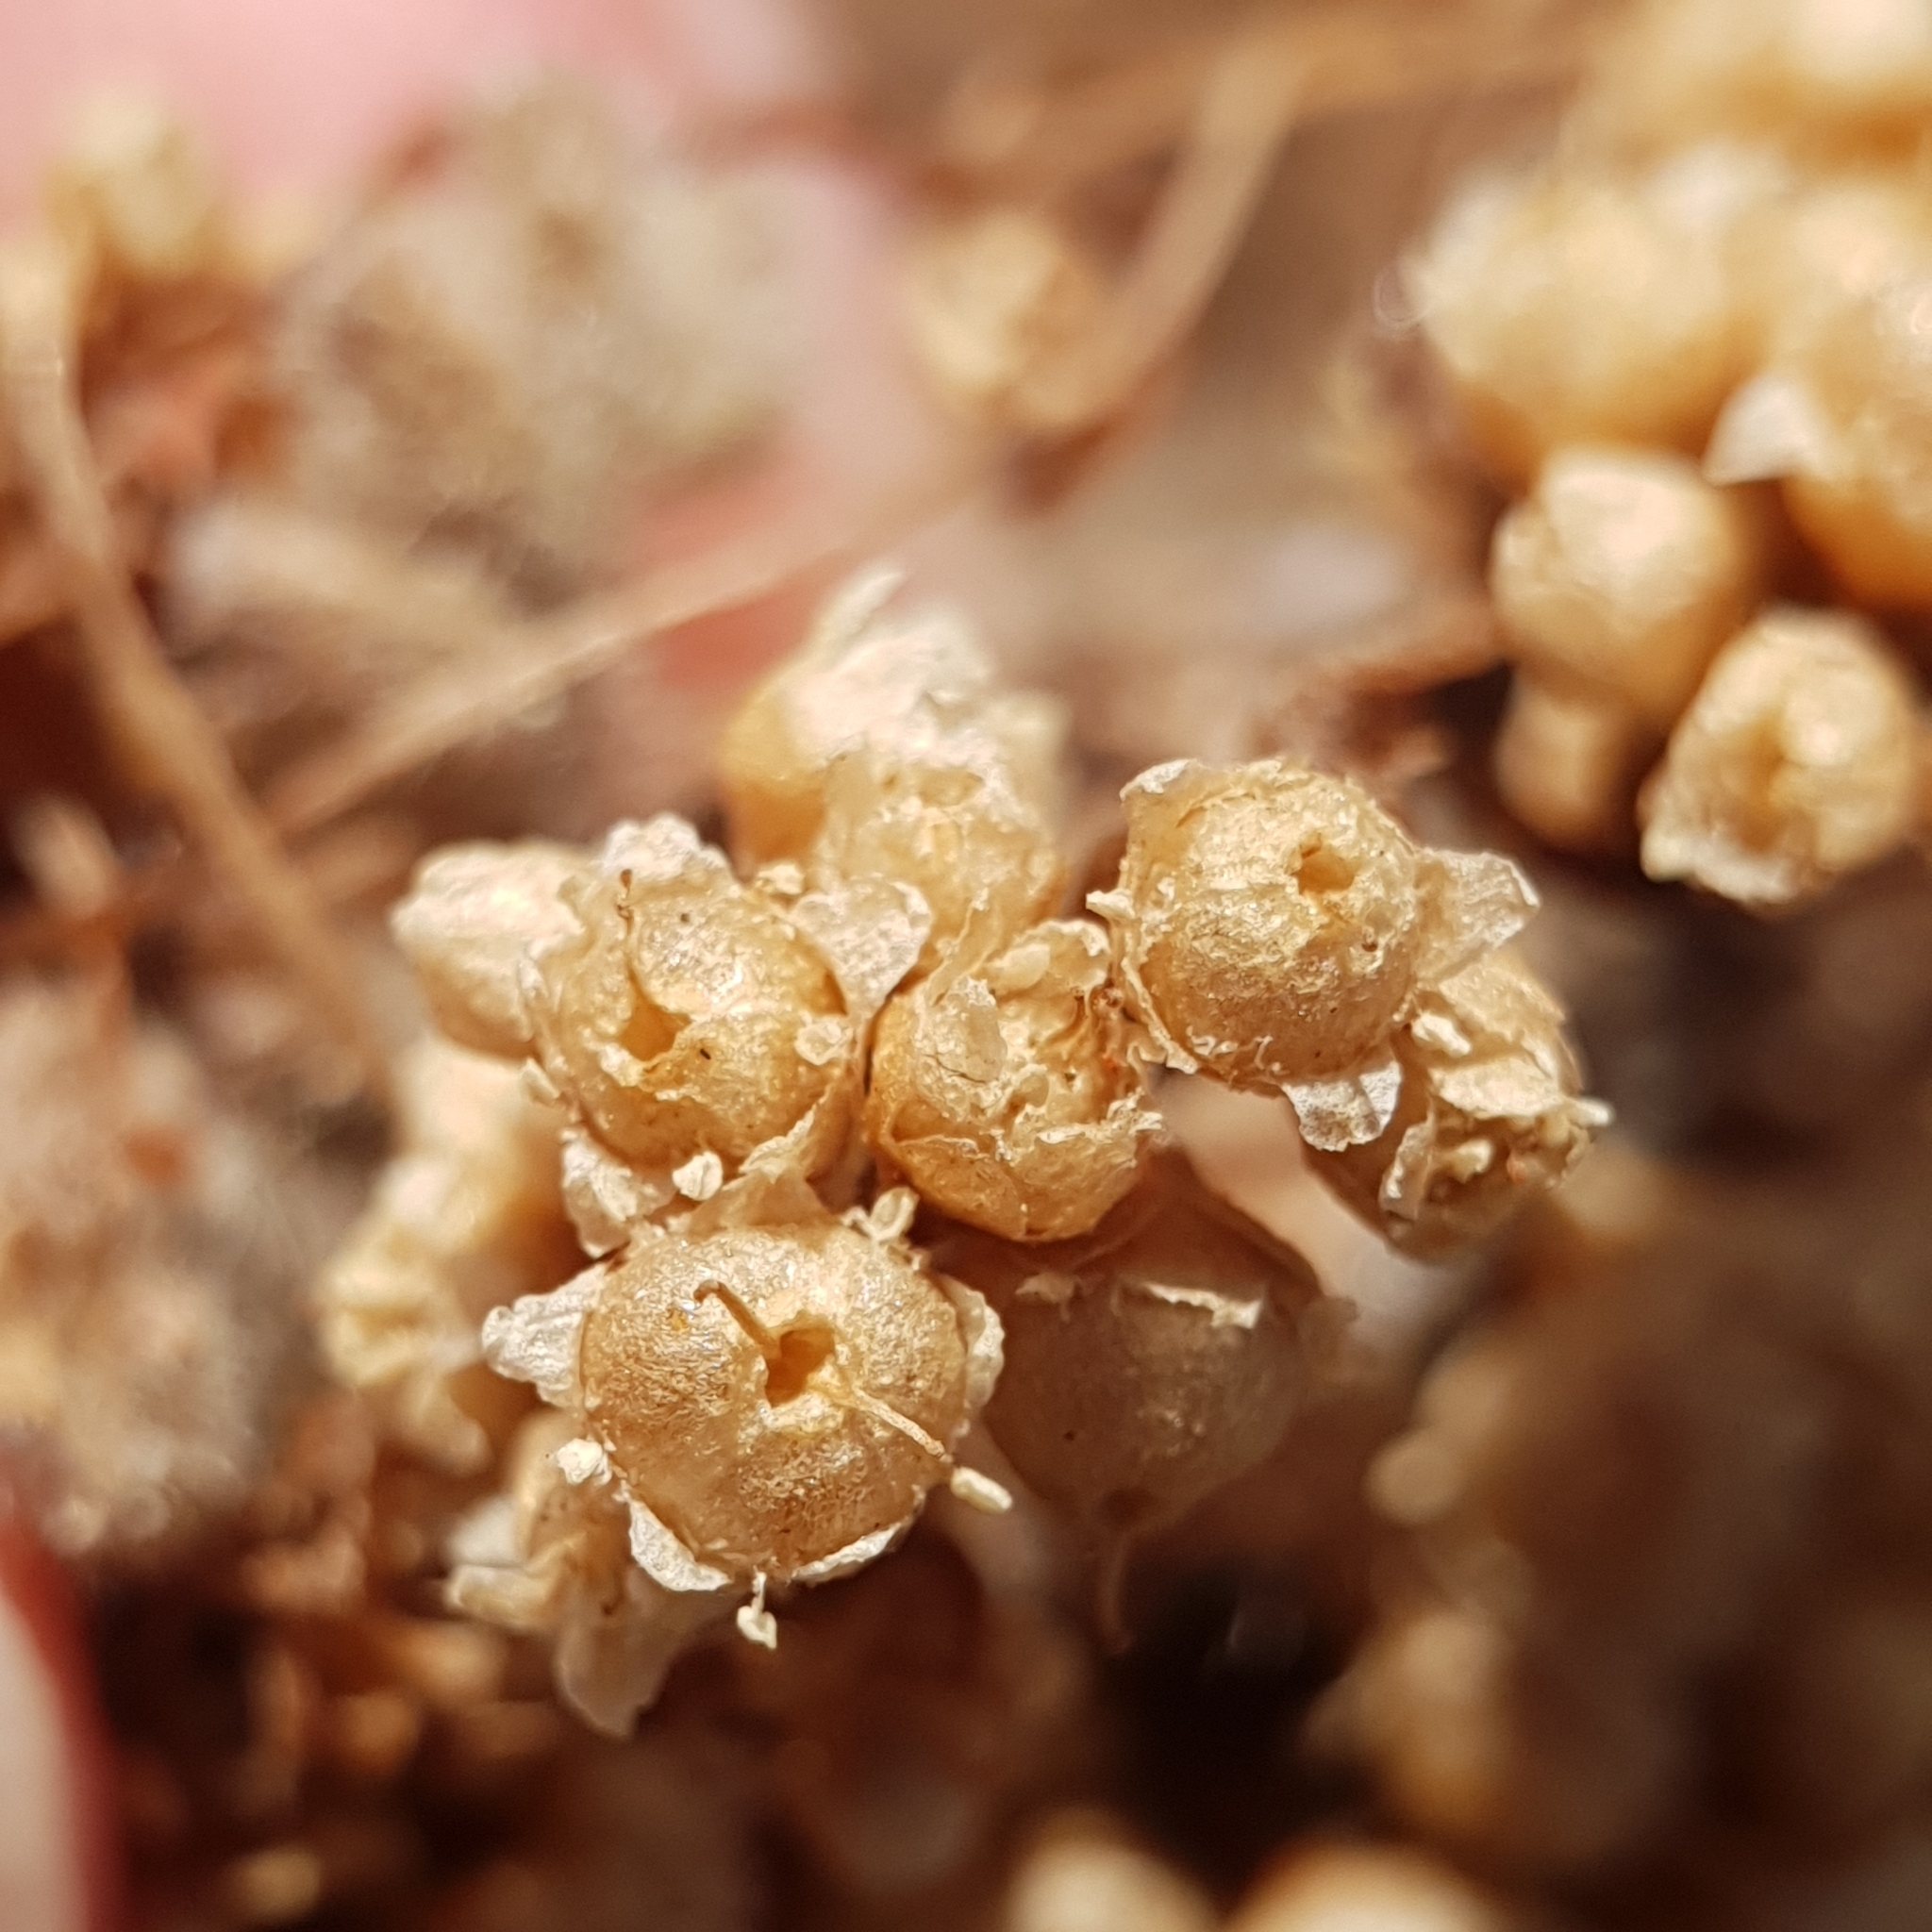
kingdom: Plantae
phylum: Tracheophyta
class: Magnoliopsida
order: Solanales
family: Convolvulaceae
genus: Cuscuta
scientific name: Cuscuta campestris
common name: Yellow dodder
